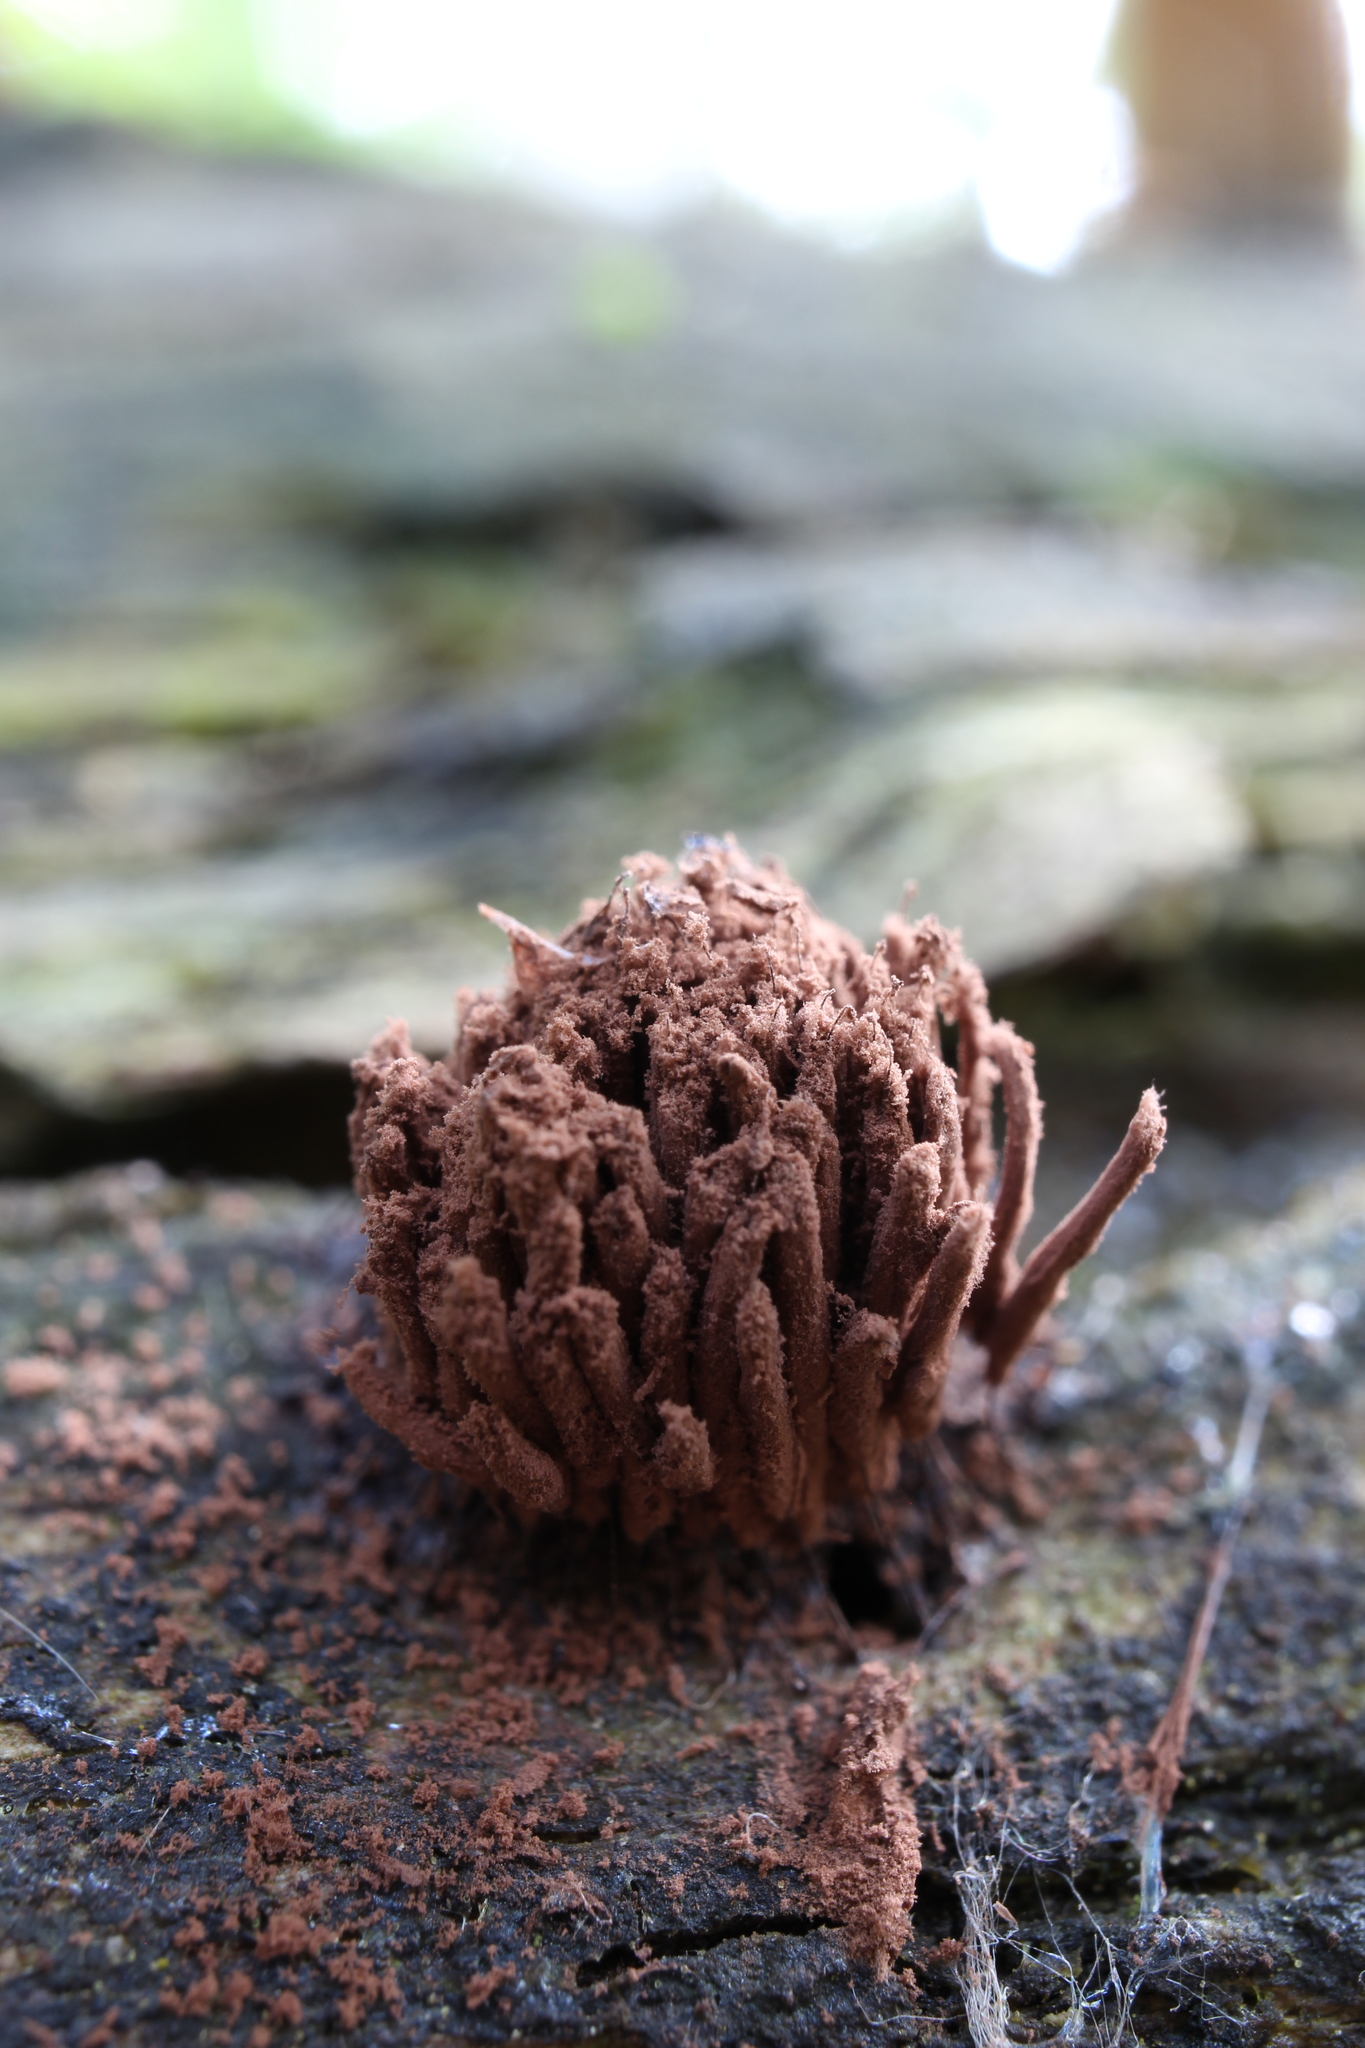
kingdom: Protozoa
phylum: Mycetozoa
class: Myxomycetes
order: Stemonitidales
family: Stemonitidaceae
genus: Stemonitis
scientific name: Stemonitis axifera
